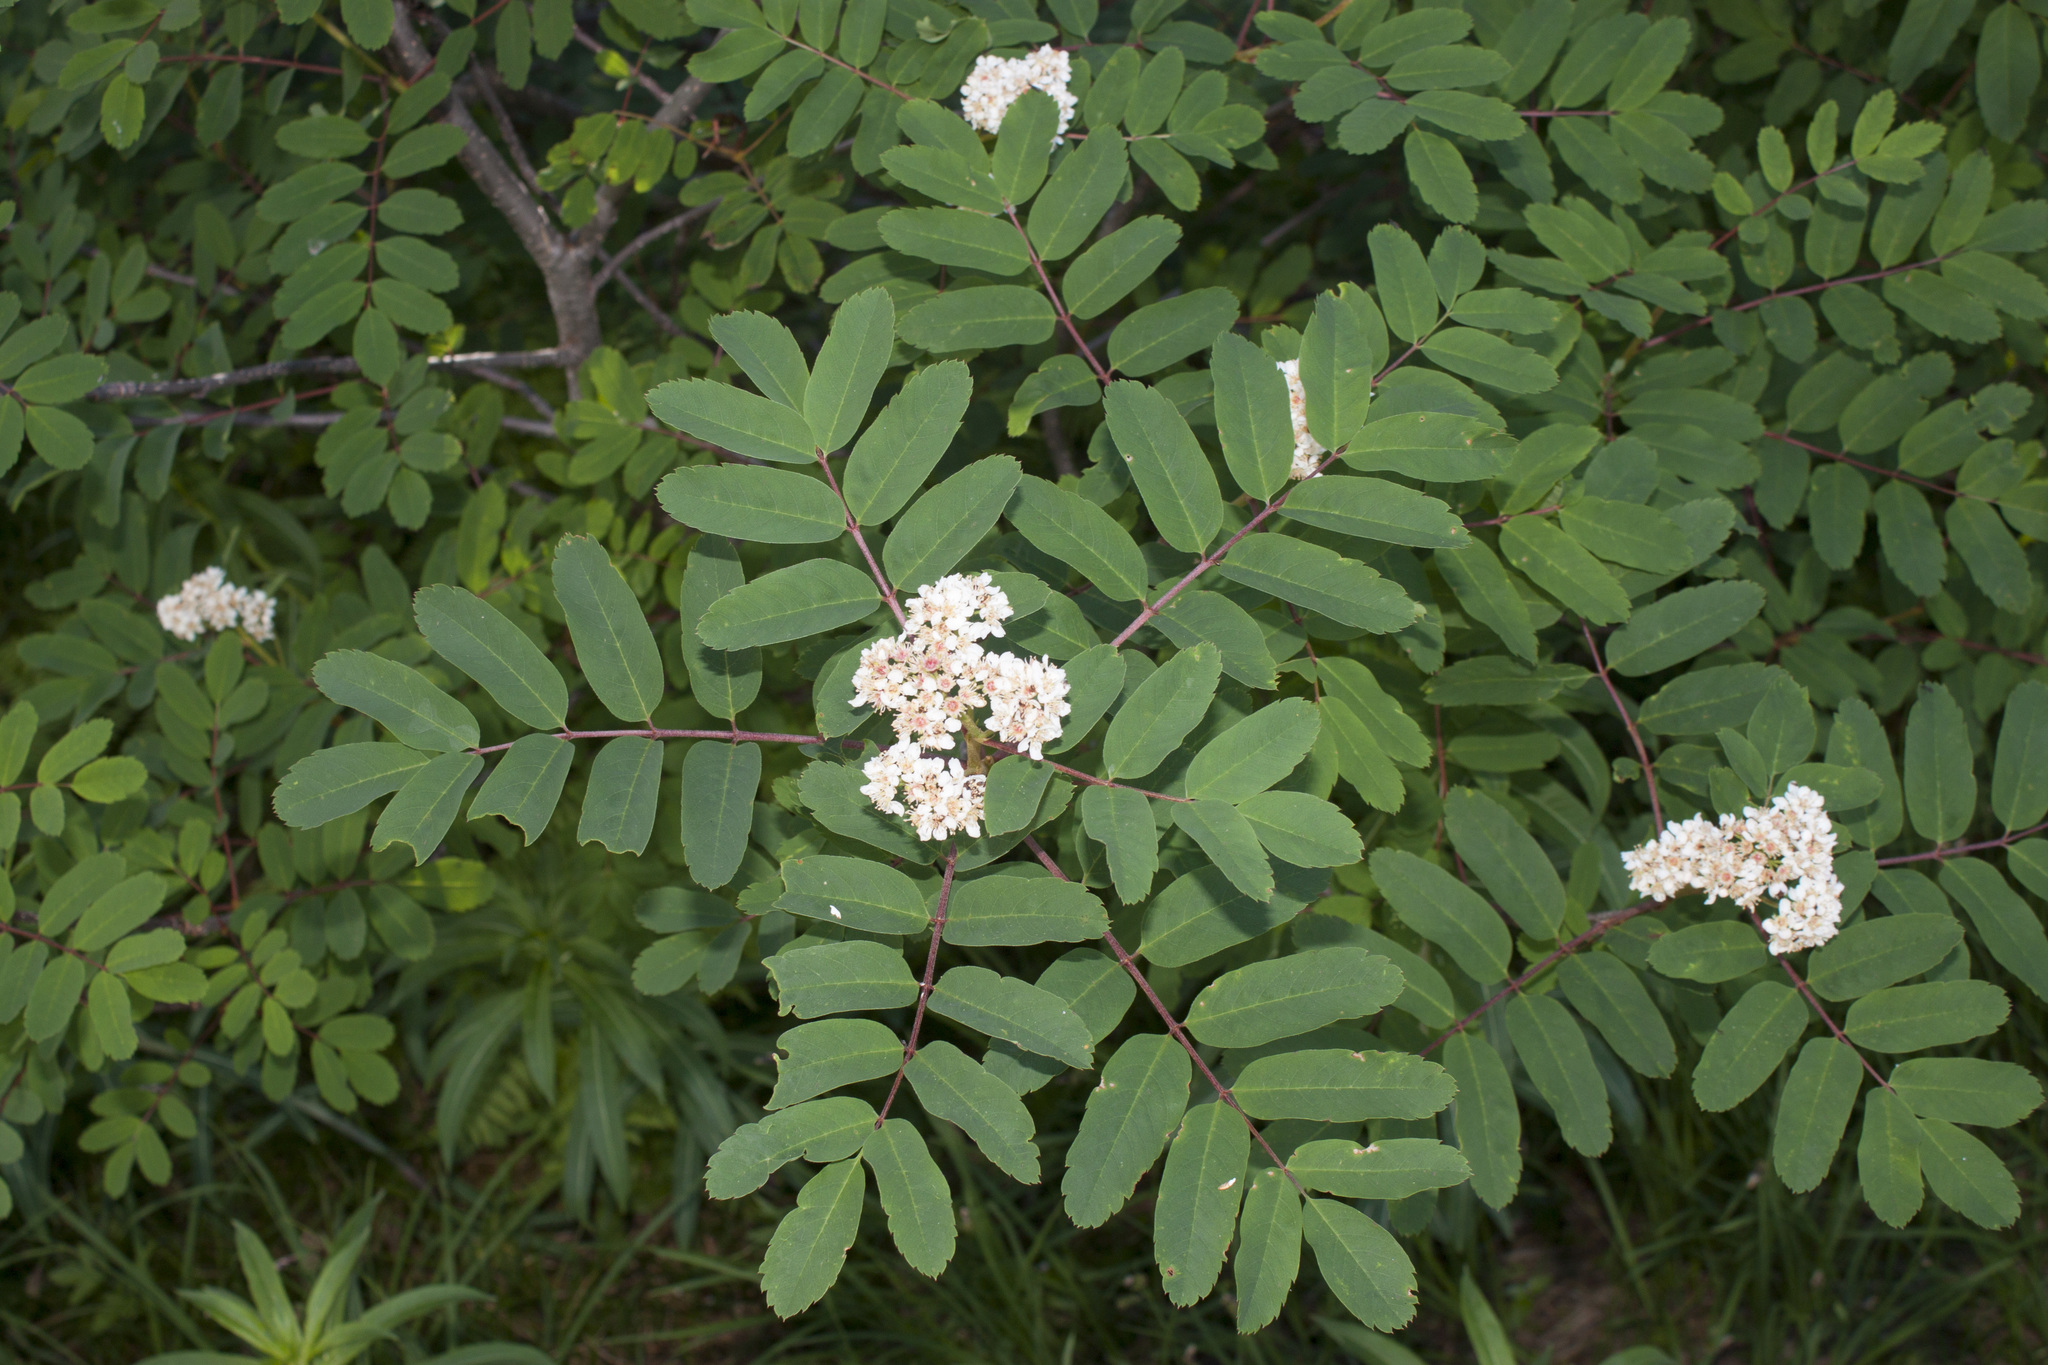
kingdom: Plantae
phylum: Tracheophyta
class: Magnoliopsida
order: Rosales
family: Rosaceae
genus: Sorbus
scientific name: Sorbus sitchensis
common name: Sitka mountain-ash
